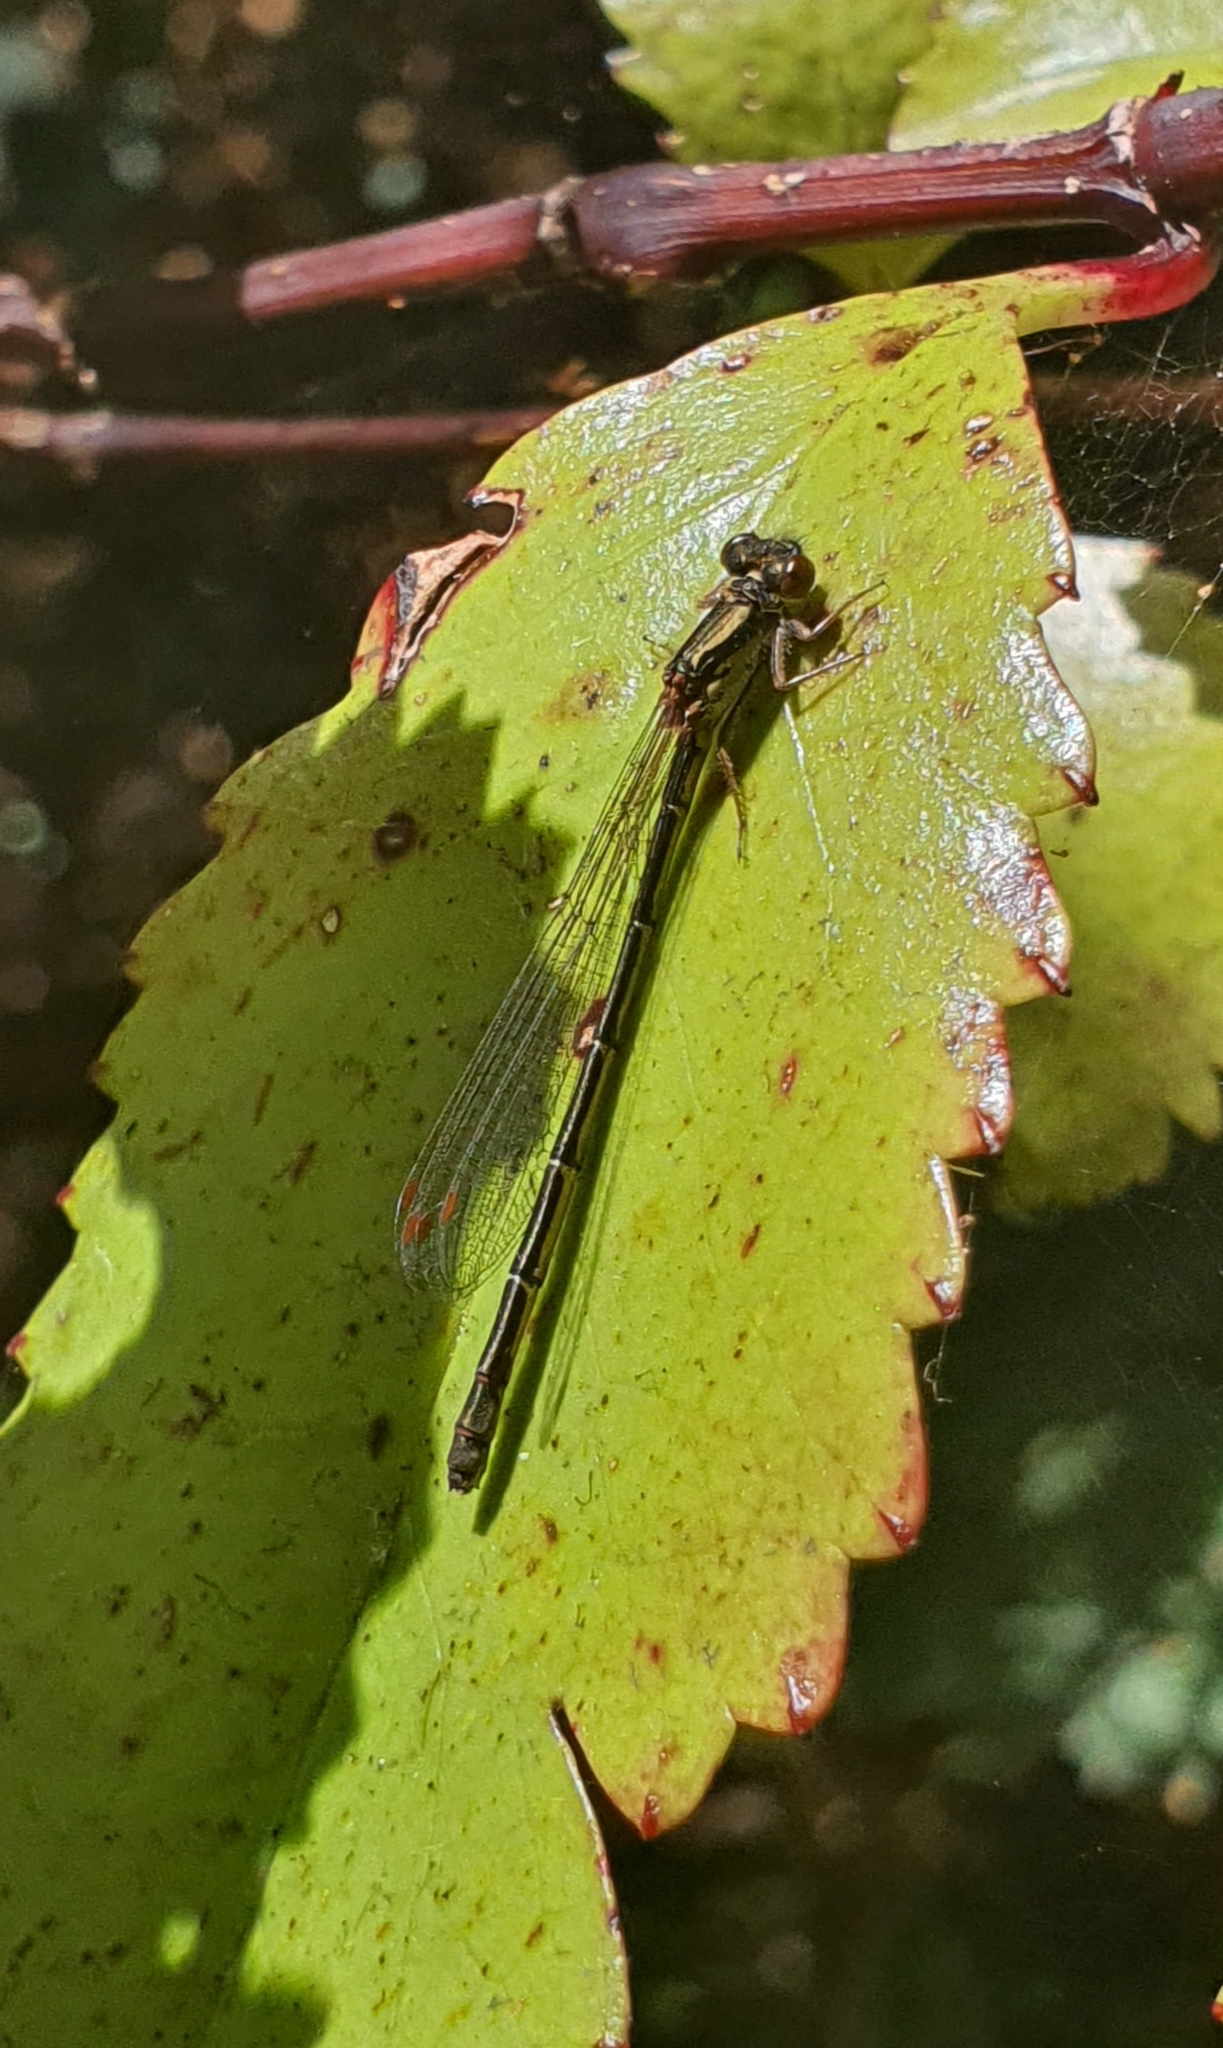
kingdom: Animalia
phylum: Arthropoda
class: Insecta
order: Odonata
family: Coenagrionidae
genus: Xanthocnemis
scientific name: Xanthocnemis zealandica
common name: Common redcoat damselfly
